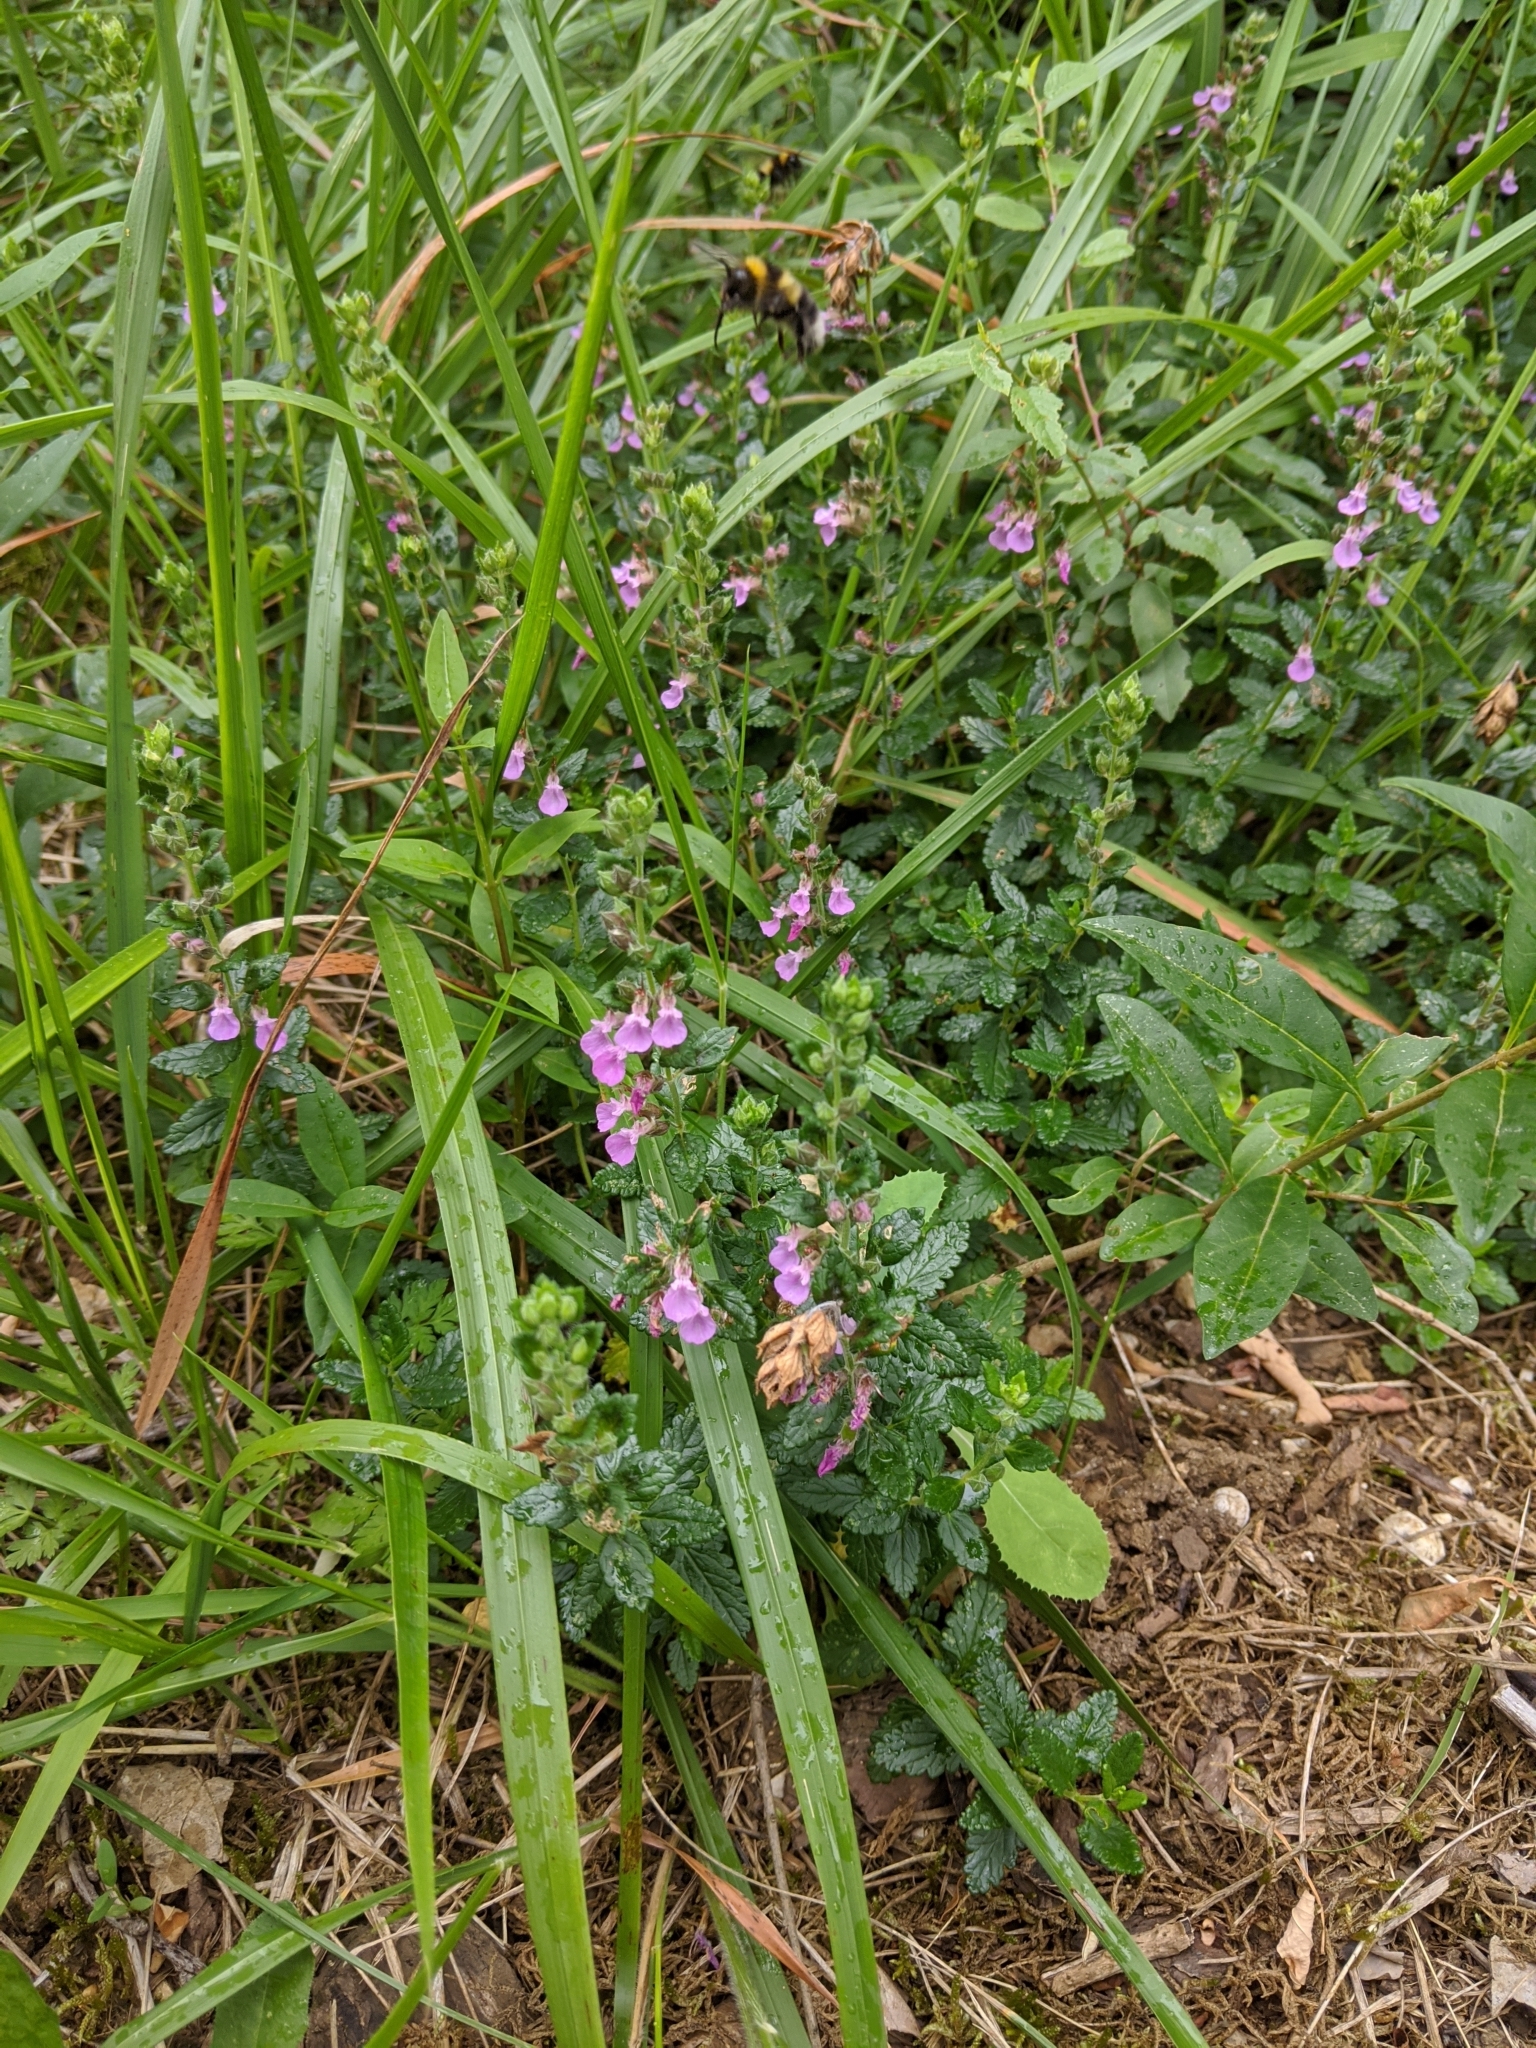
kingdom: Plantae
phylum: Tracheophyta
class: Magnoliopsida
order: Lamiales
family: Lamiaceae
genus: Teucrium
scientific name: Teucrium chamaedrys
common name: Wall germander
